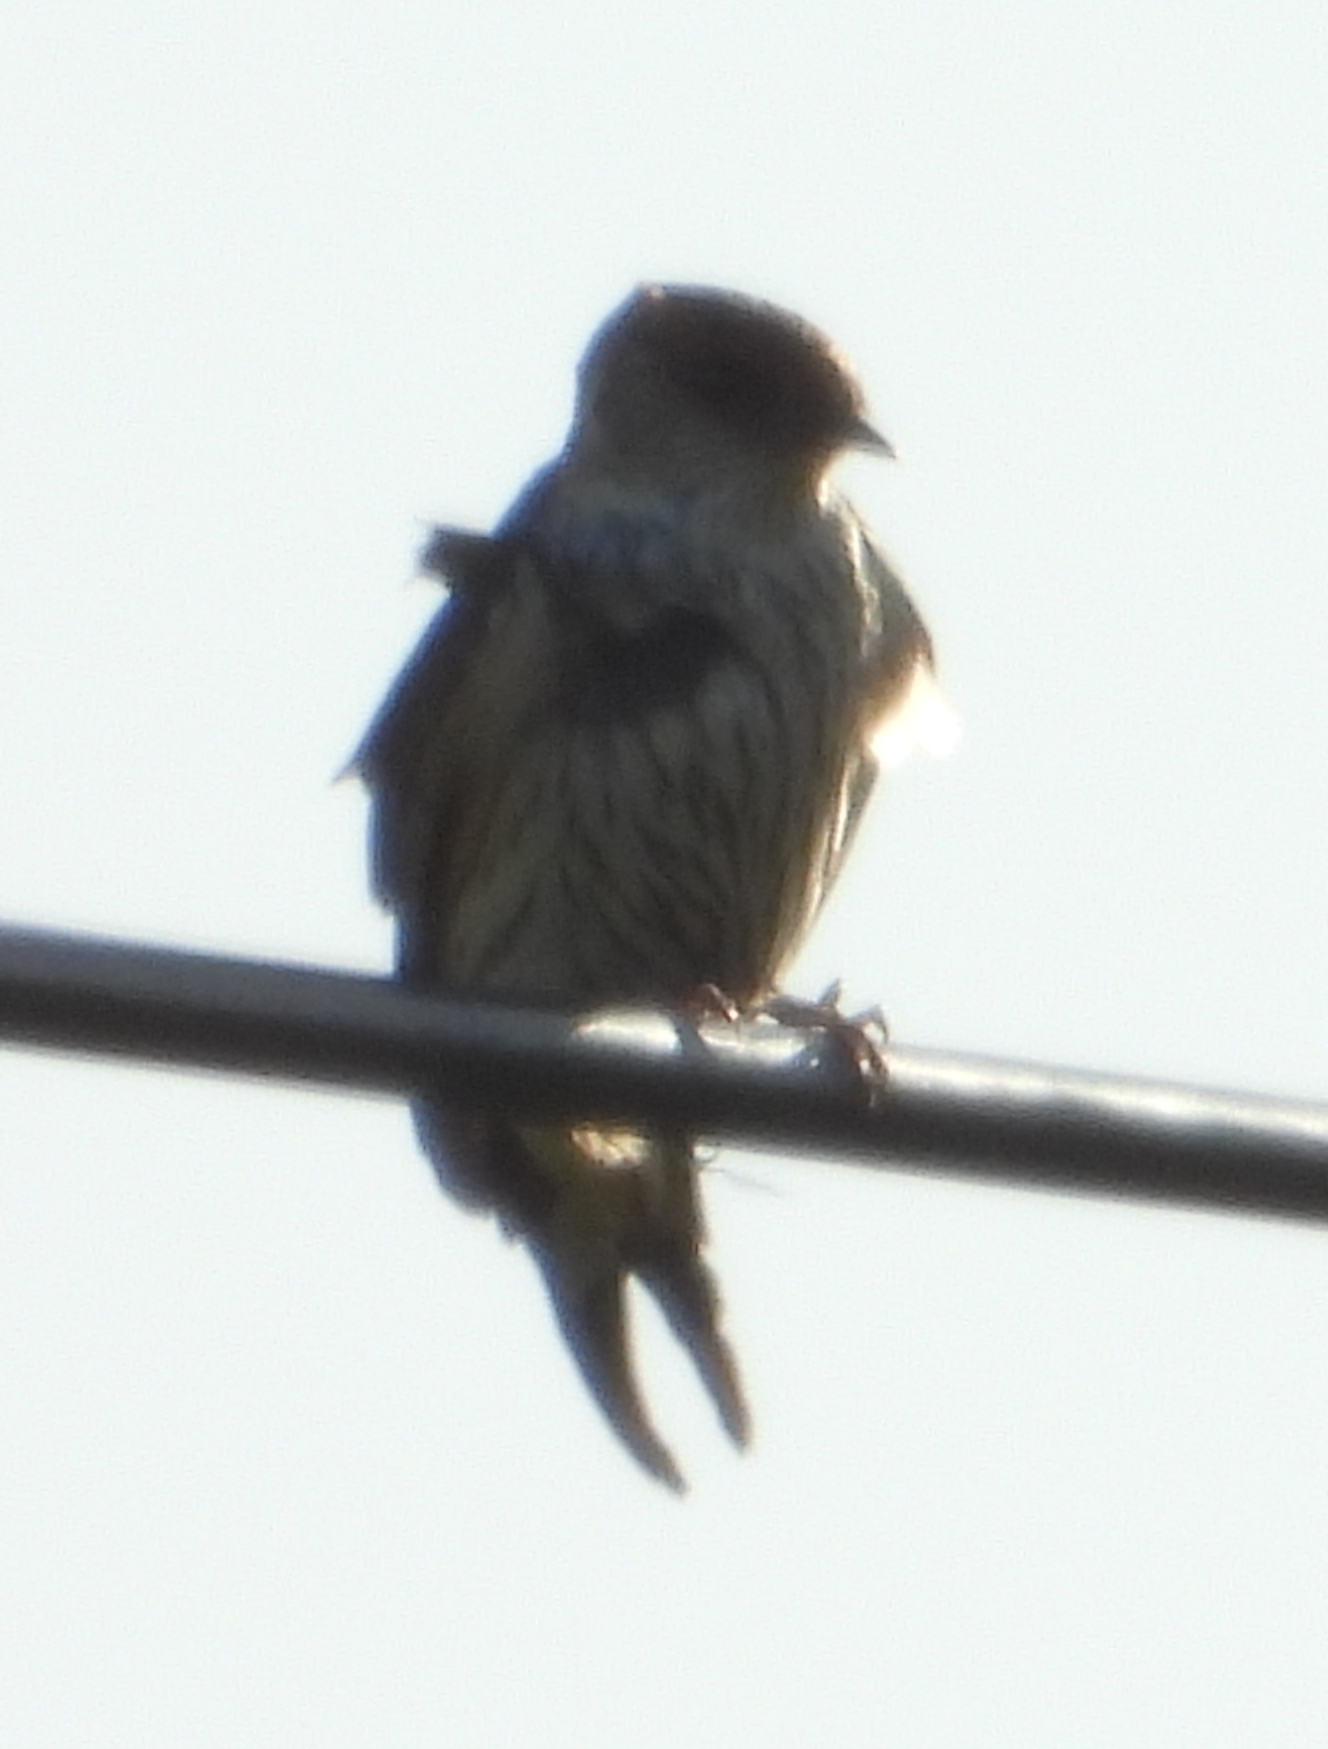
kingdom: Animalia
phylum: Chordata
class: Aves
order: Passeriformes
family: Hirundinidae
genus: Cecropis
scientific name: Cecropis cucullata
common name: Greater striped-swallow
